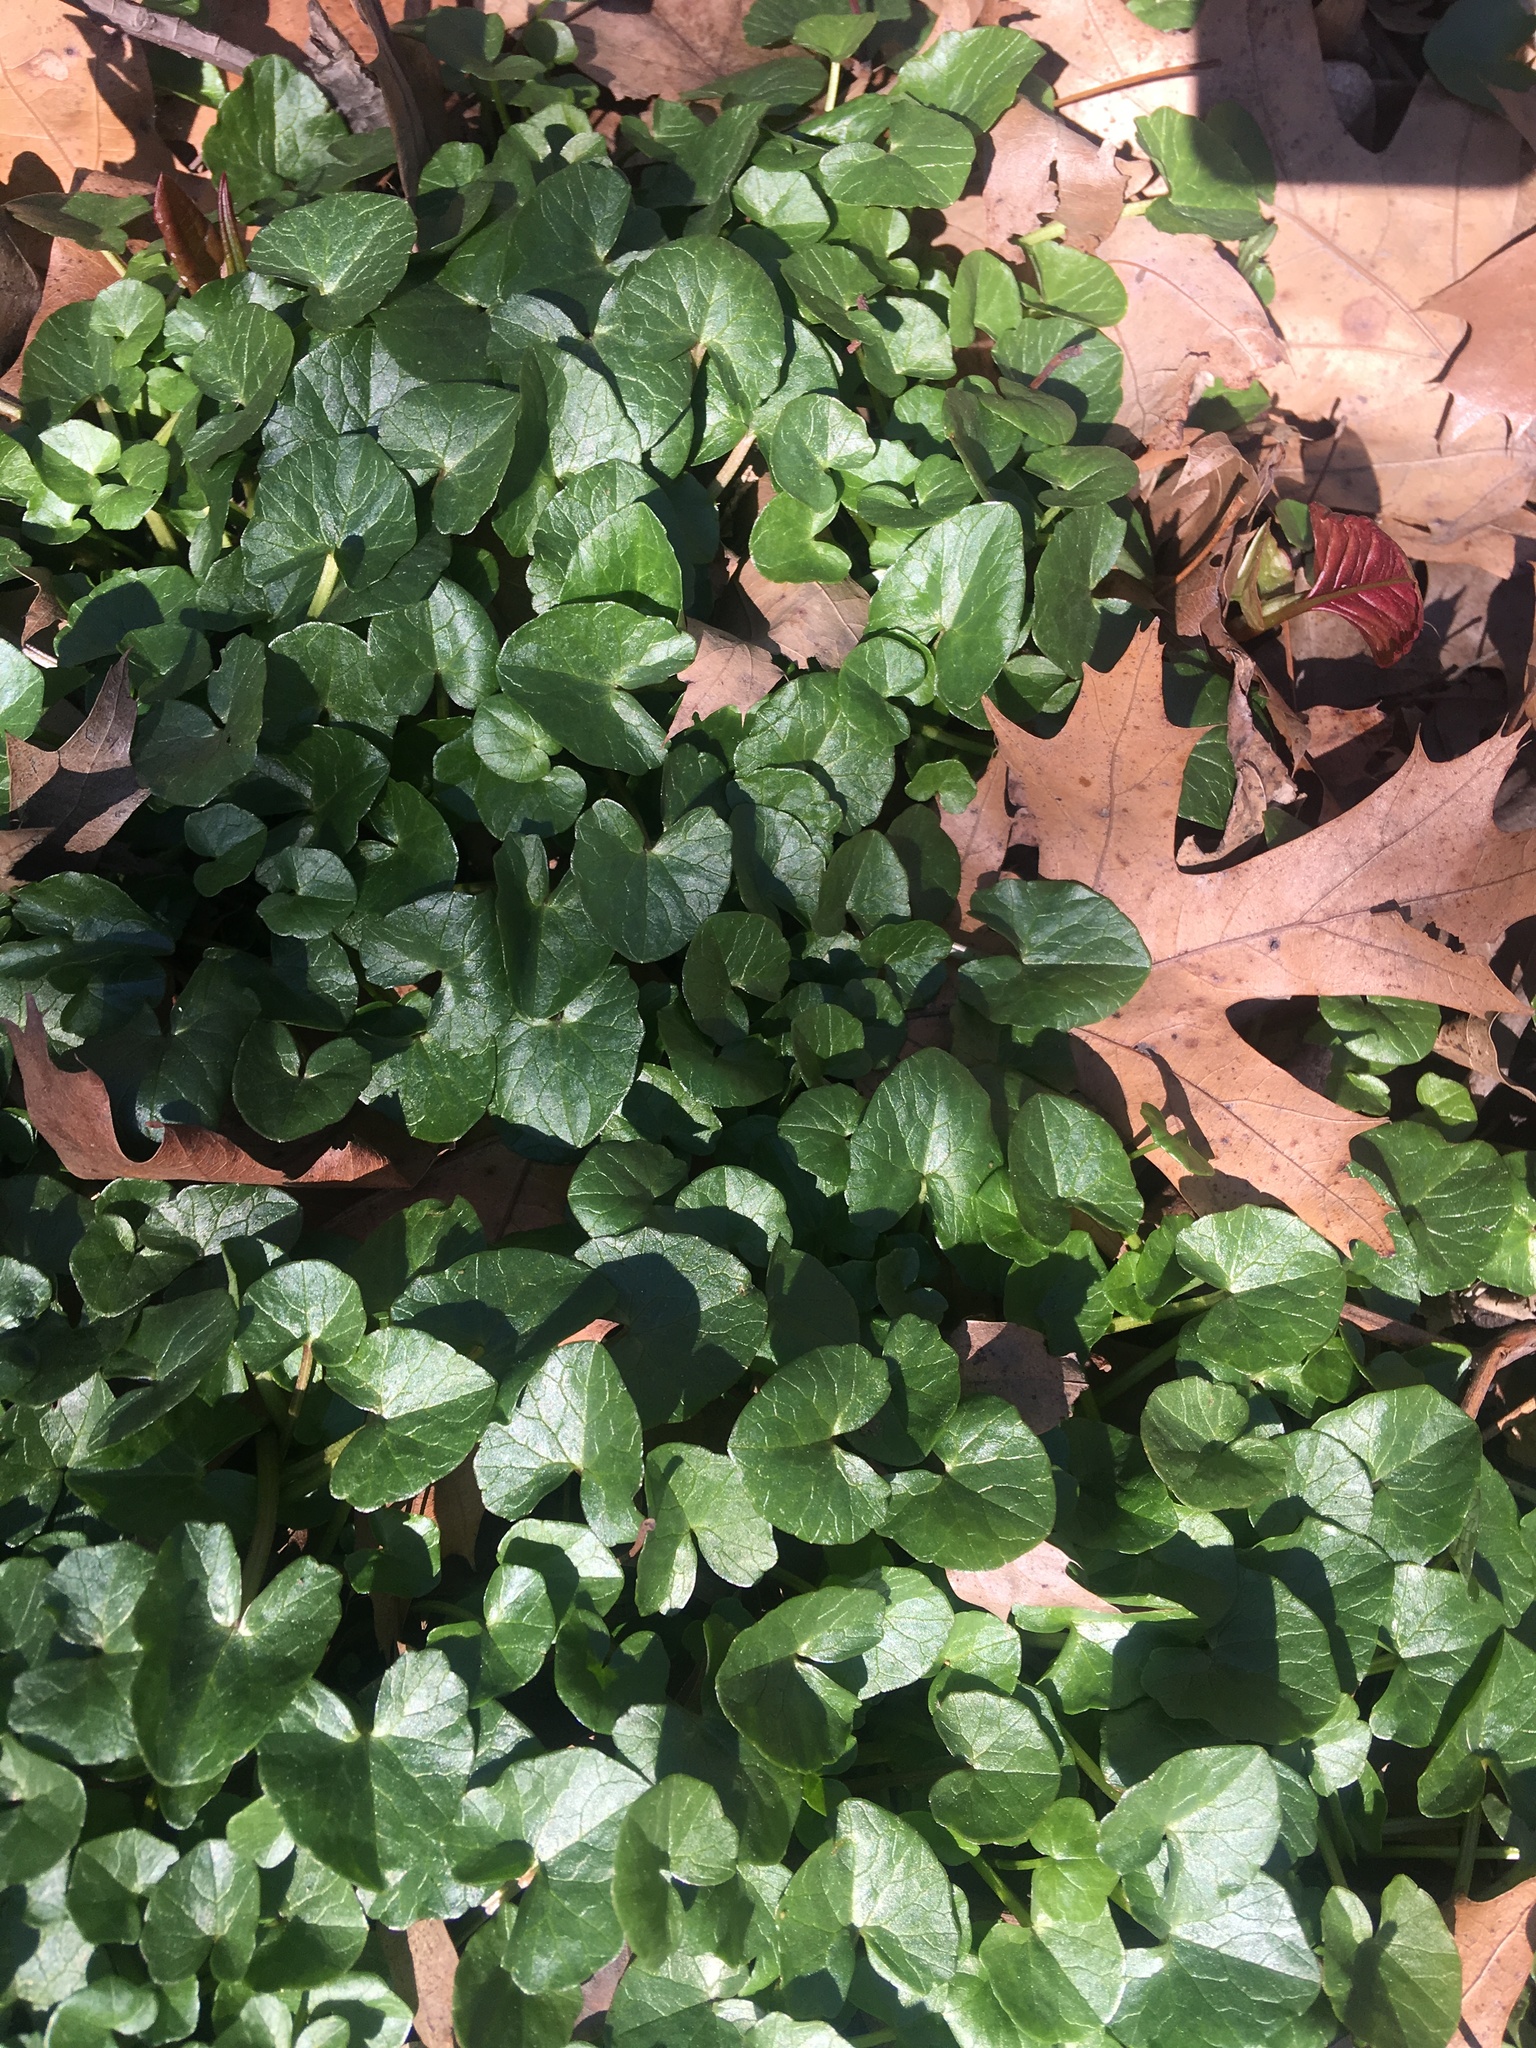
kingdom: Plantae
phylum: Tracheophyta
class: Magnoliopsida
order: Ranunculales
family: Ranunculaceae
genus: Ficaria
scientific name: Ficaria verna
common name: Lesser celandine
